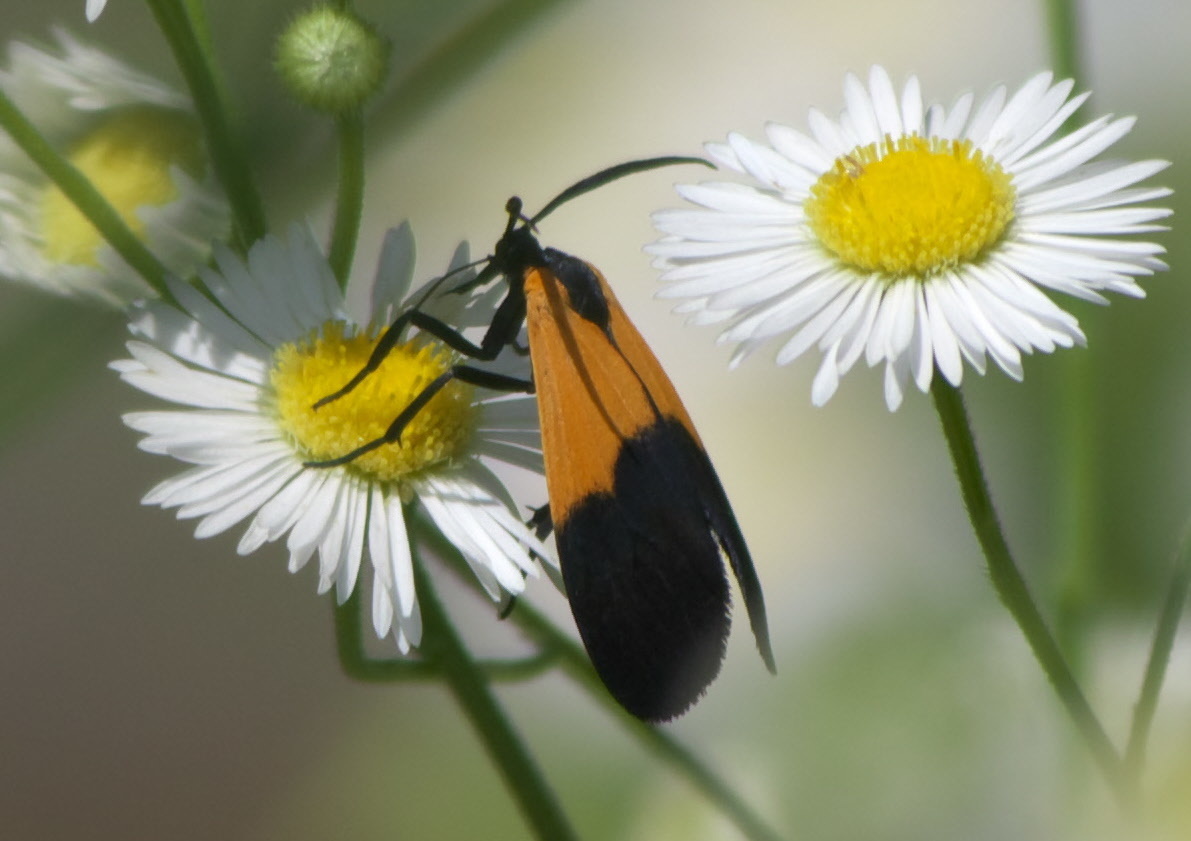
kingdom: Animalia
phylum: Arthropoda
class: Insecta
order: Lepidoptera
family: Erebidae
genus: Lycomorpha
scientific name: Lycomorpha pholus
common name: Black-and-yellow lichen moth
